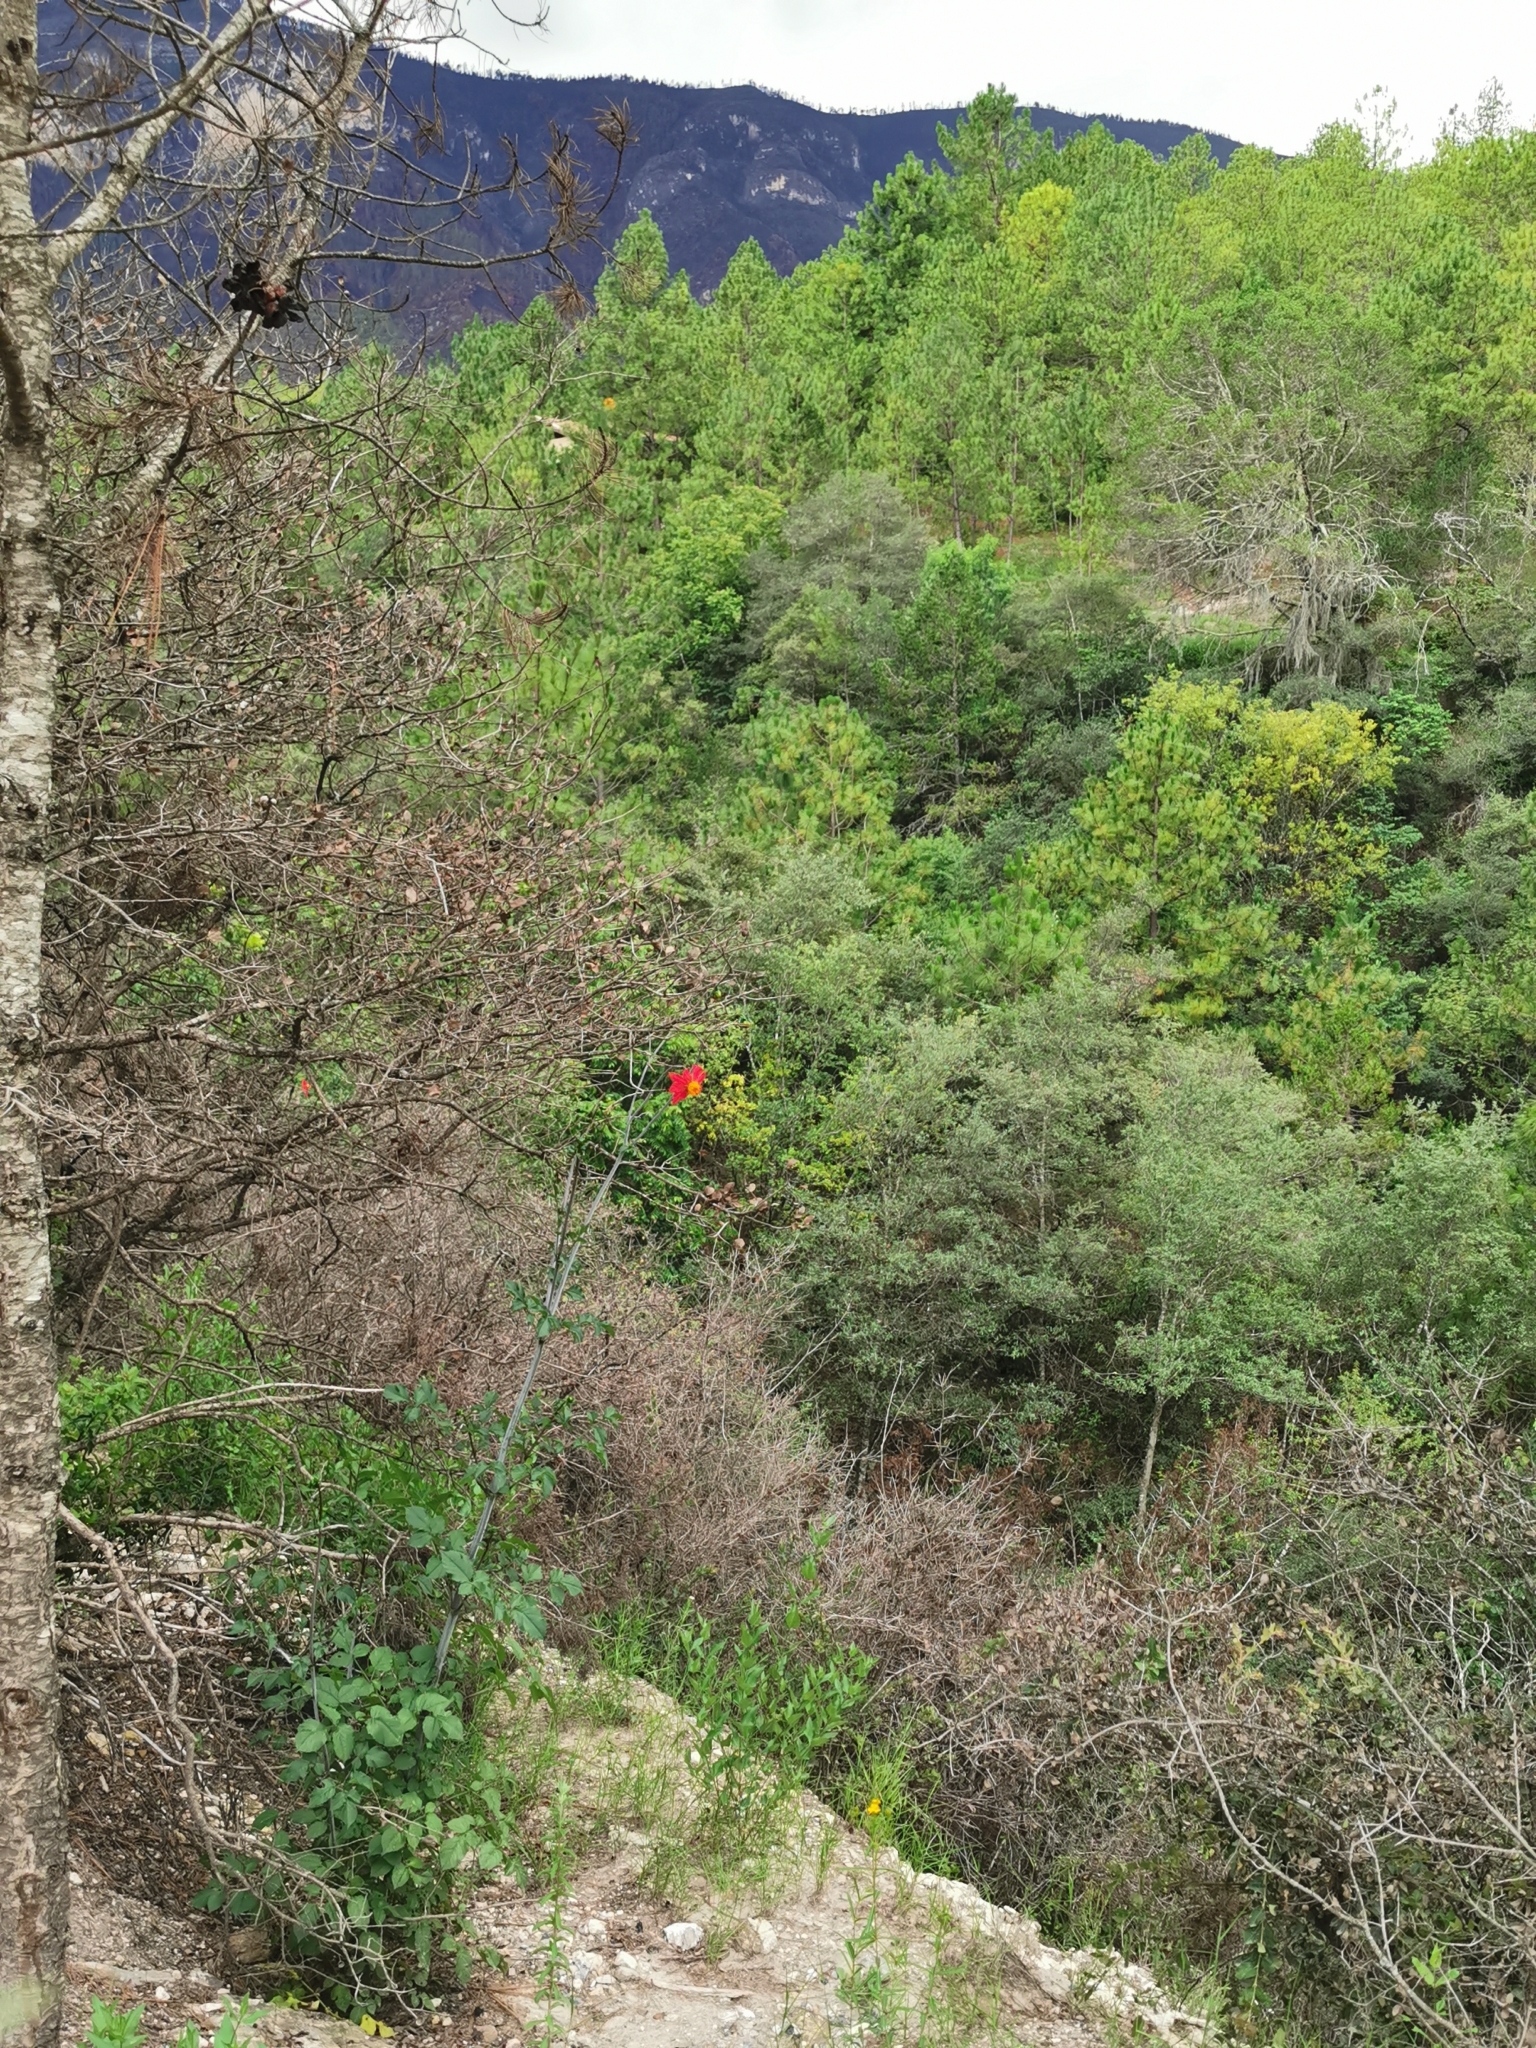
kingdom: Plantae
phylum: Tracheophyta
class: Magnoliopsida
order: Asterales
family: Asteraceae
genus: Dahlia
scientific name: Dahlia coccinea
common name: Red dahlia
